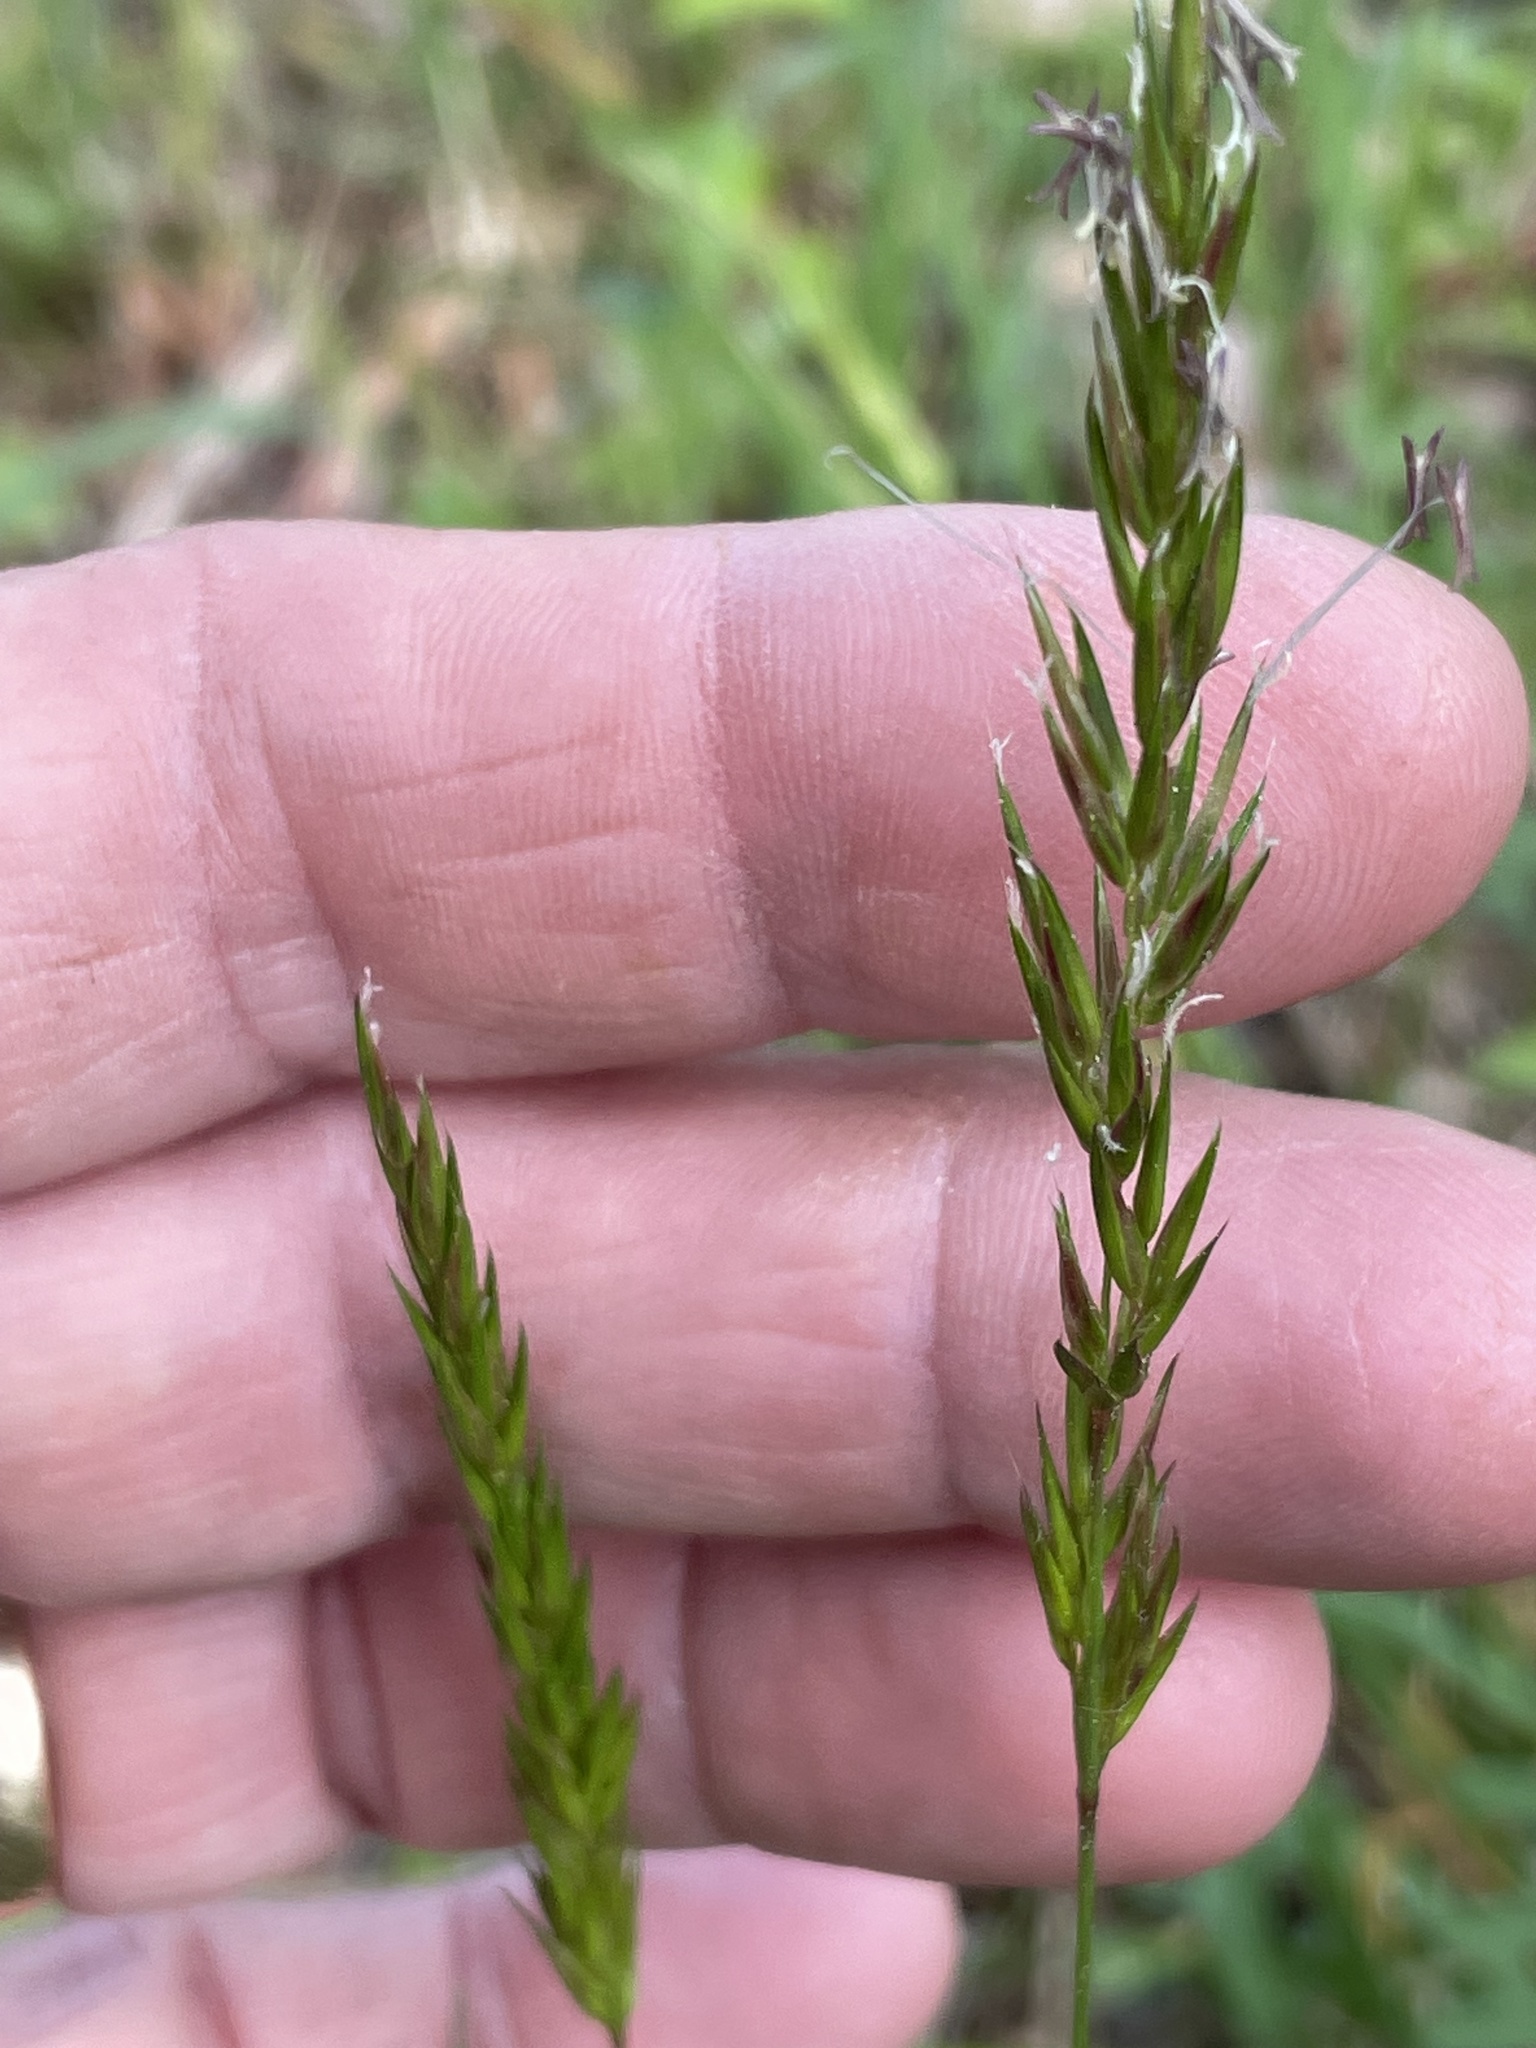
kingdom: Plantae
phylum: Tracheophyta
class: Liliopsida
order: Poales
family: Poaceae
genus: Anthoxanthum
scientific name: Anthoxanthum odoratum
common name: Sweet vernalgrass
